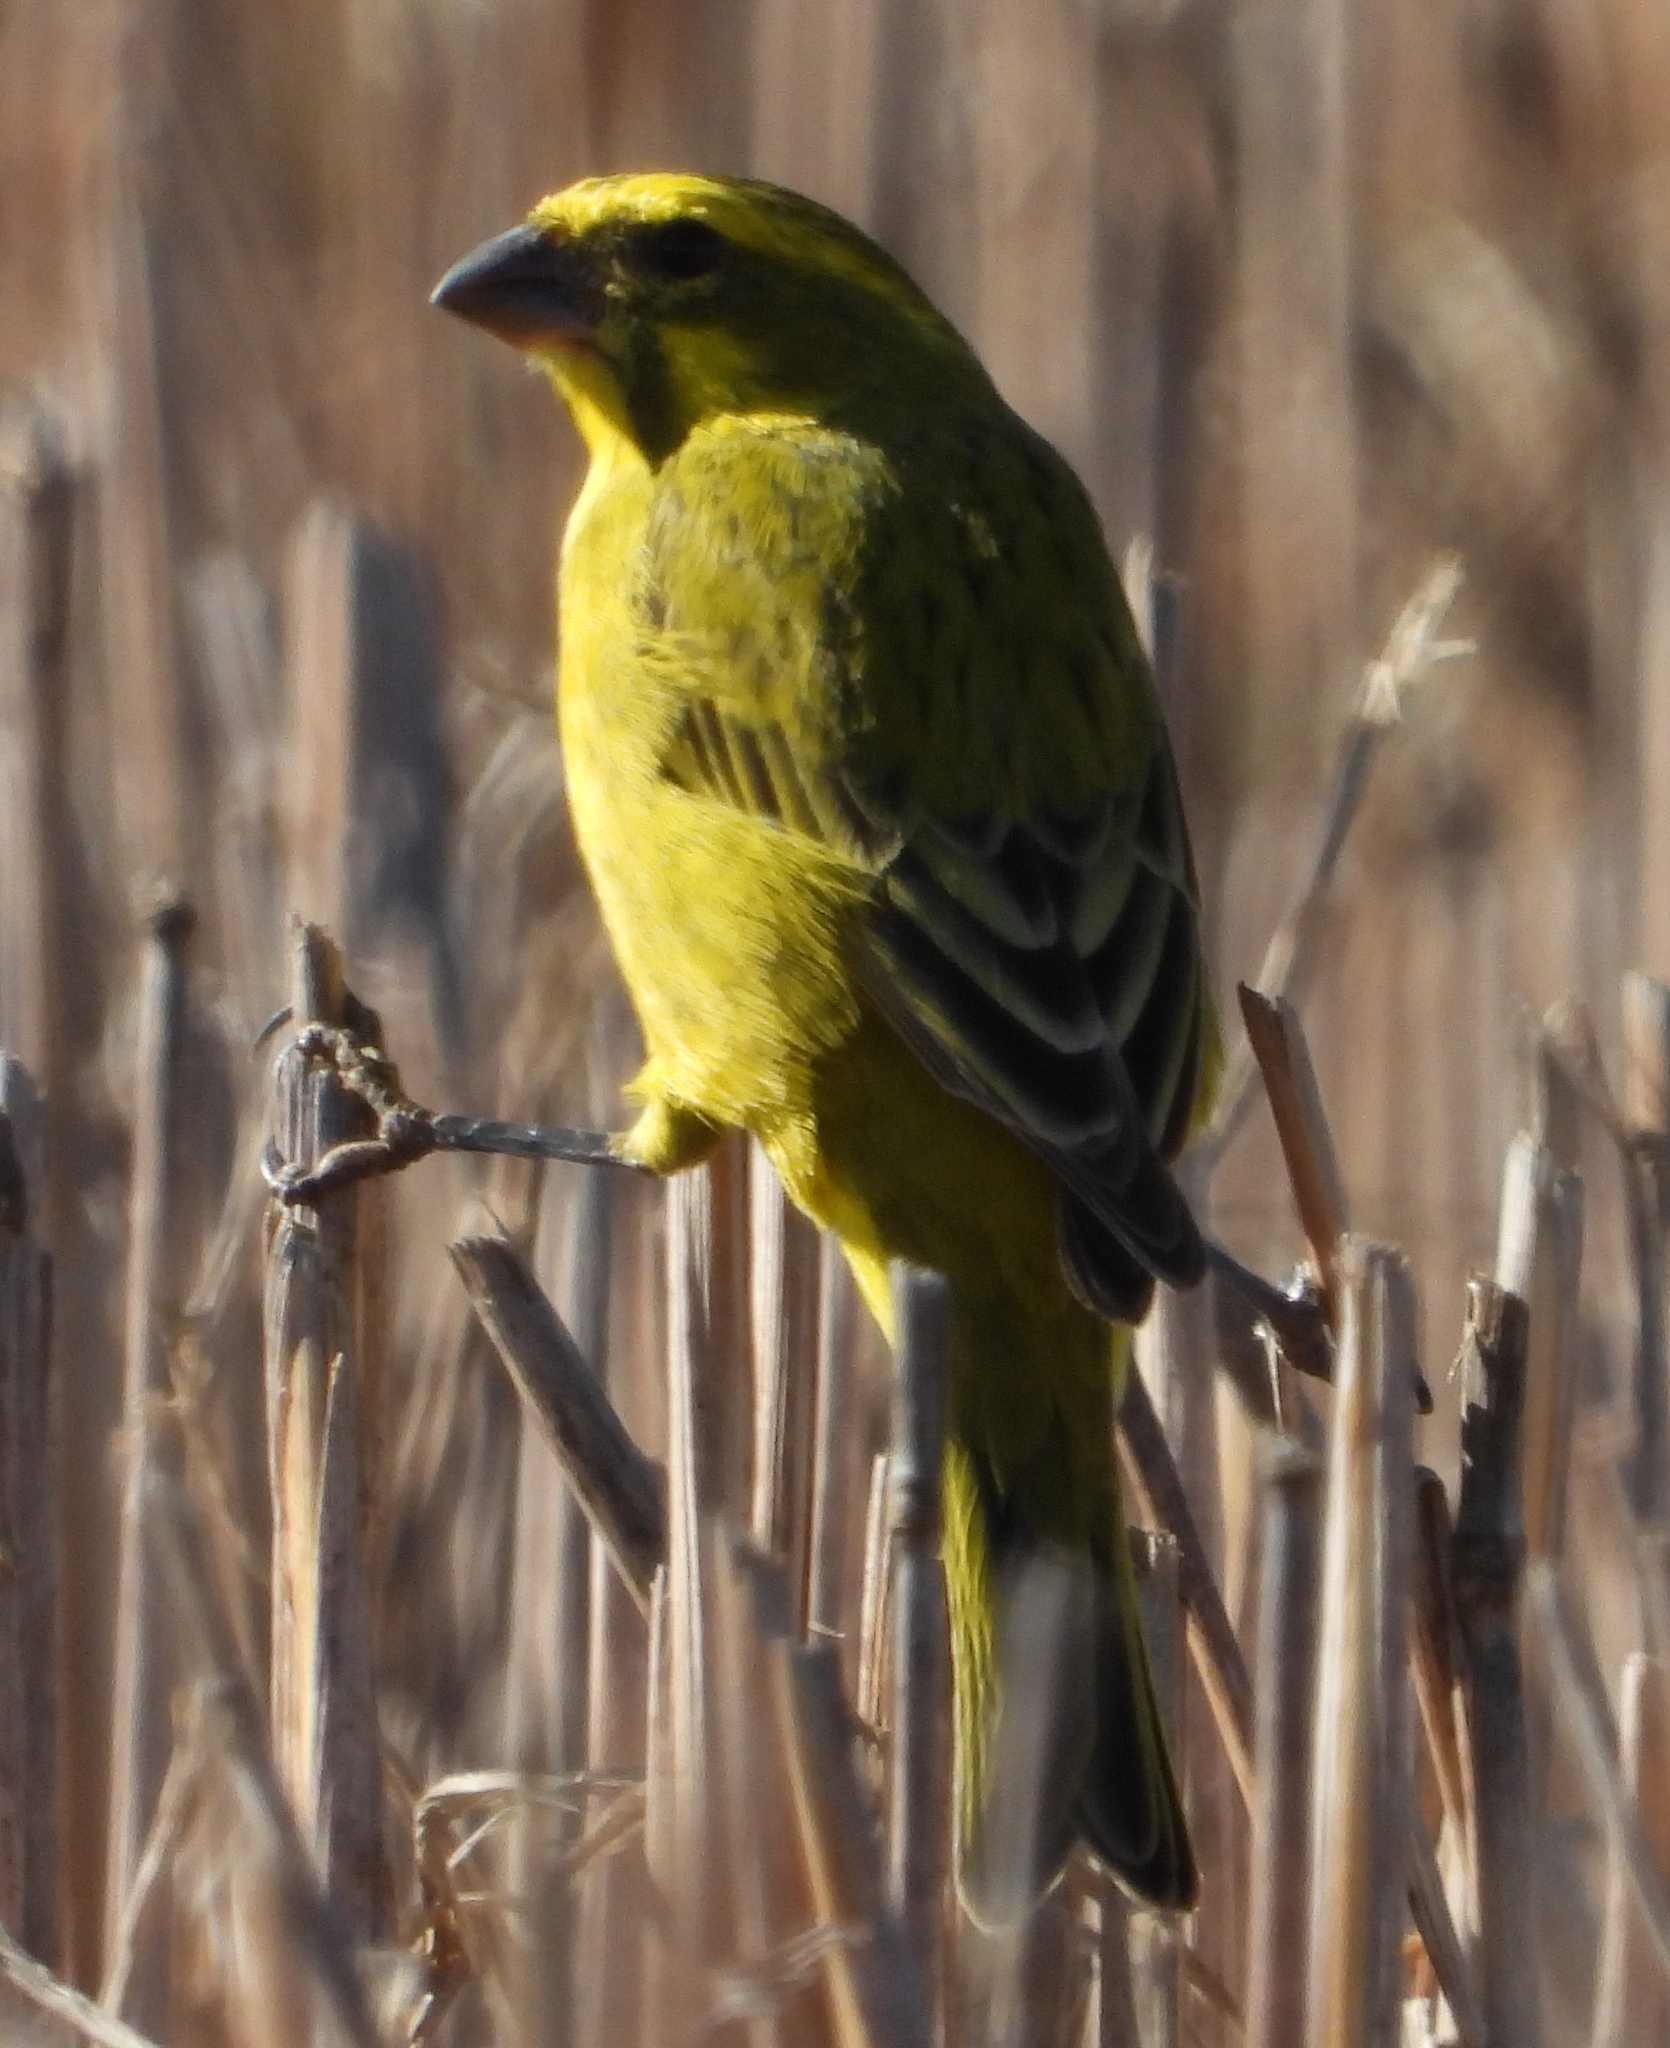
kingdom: Animalia
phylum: Chordata
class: Aves
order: Passeriformes
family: Fringillidae
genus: Crithagra
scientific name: Crithagra flaviventris
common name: Yellow canary
